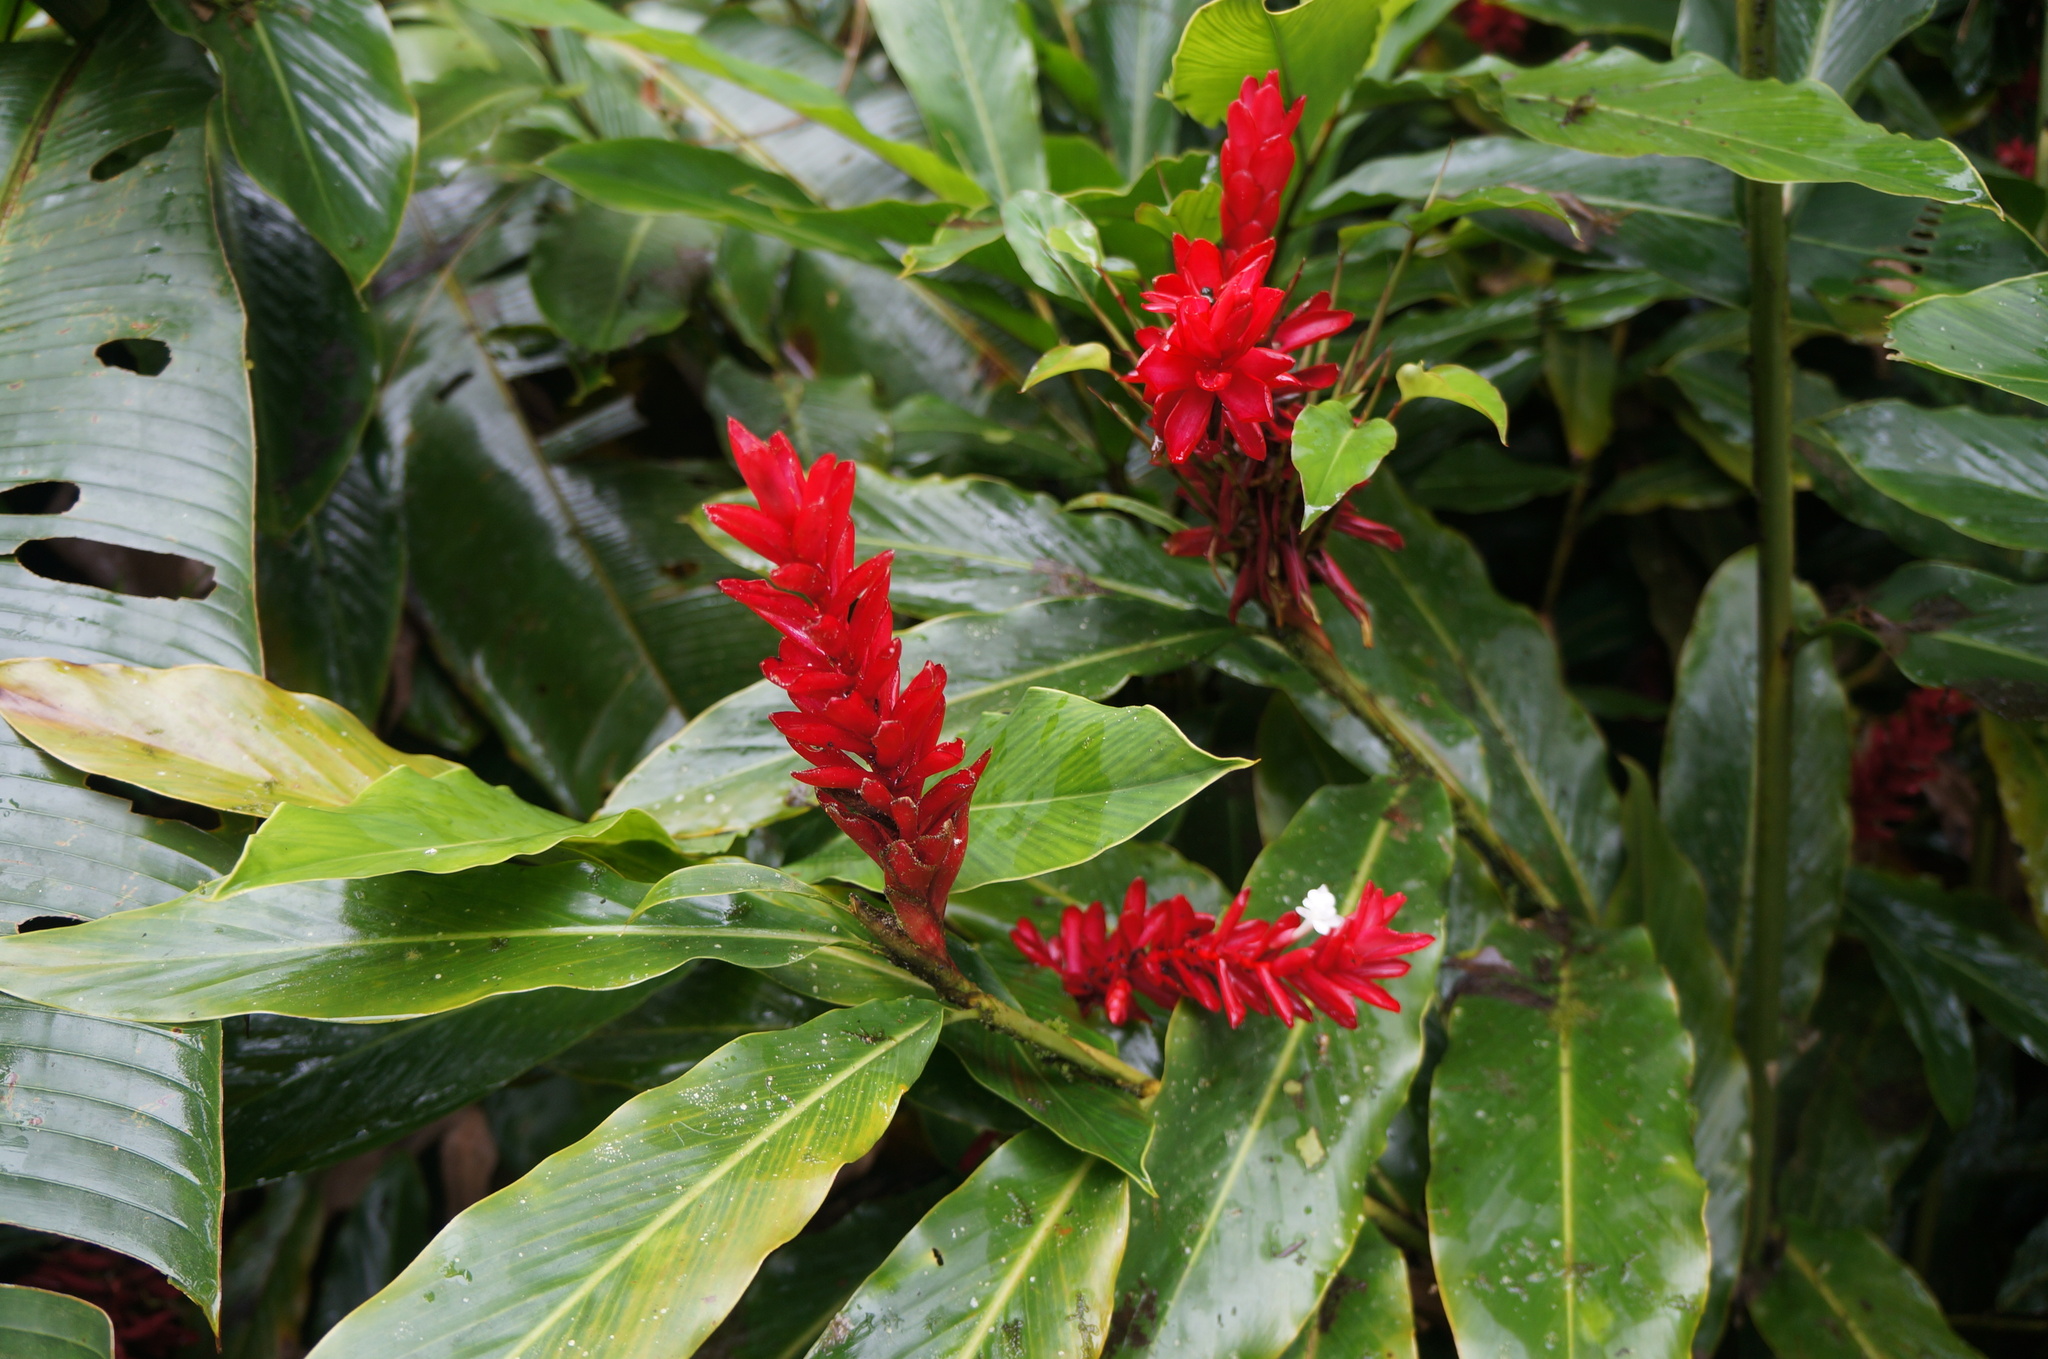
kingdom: Plantae
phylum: Tracheophyta
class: Liliopsida
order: Zingiberales
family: Zingiberaceae
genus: Alpinia
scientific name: Alpinia purpurata
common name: Red ginger
